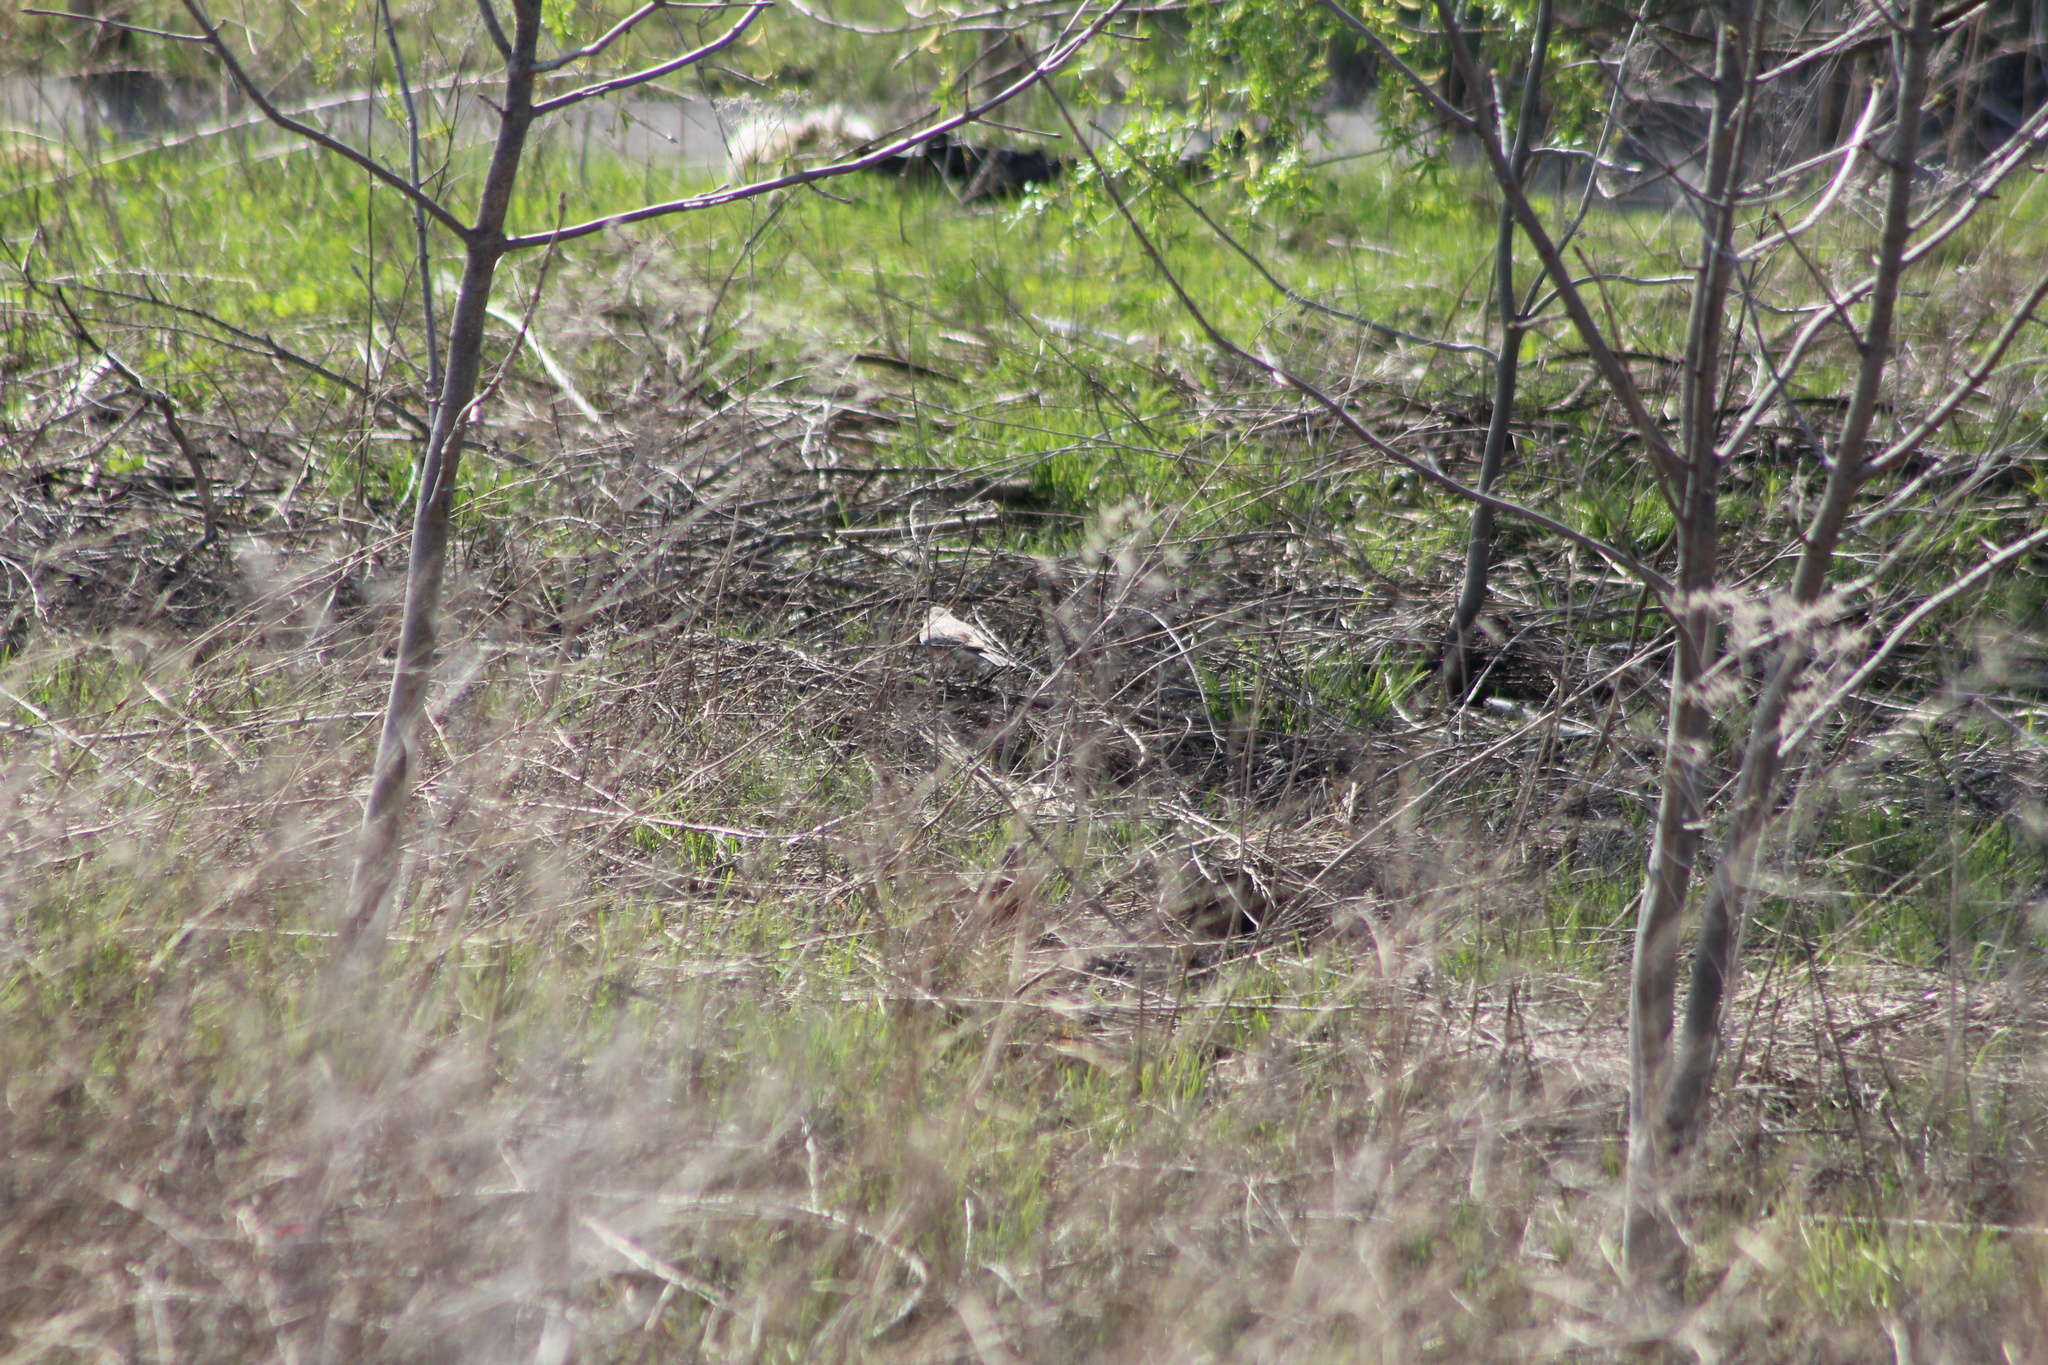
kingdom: Animalia
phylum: Chordata
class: Aves
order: Passeriformes
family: Turdidae
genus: Turdus
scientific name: Turdus migratorius
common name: American robin
